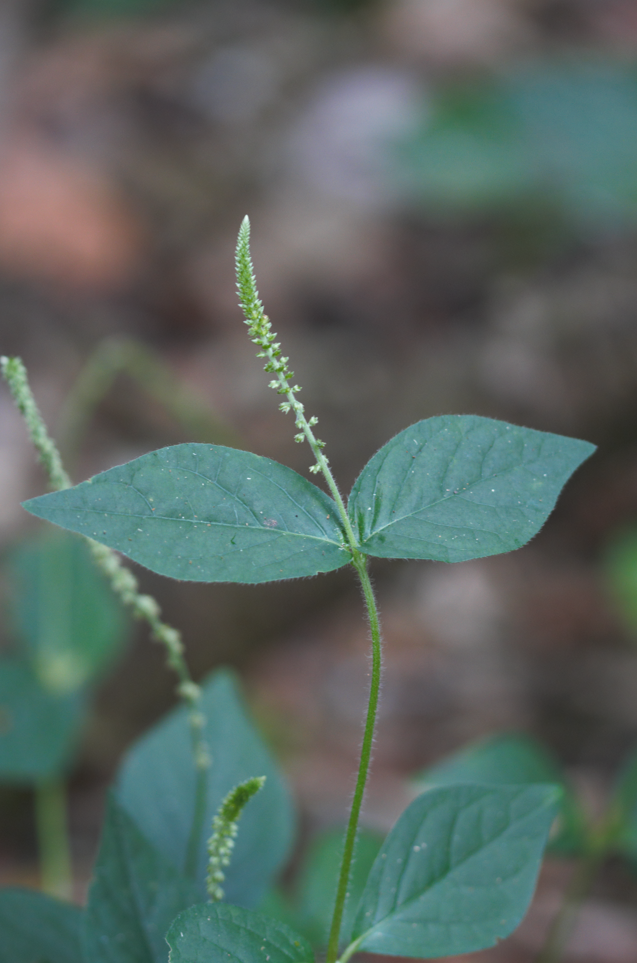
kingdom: Plantae
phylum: Tracheophyta
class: Magnoliopsida
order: Caryophyllales
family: Amaranthaceae
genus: Cyathula
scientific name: Cyathula prostrata
